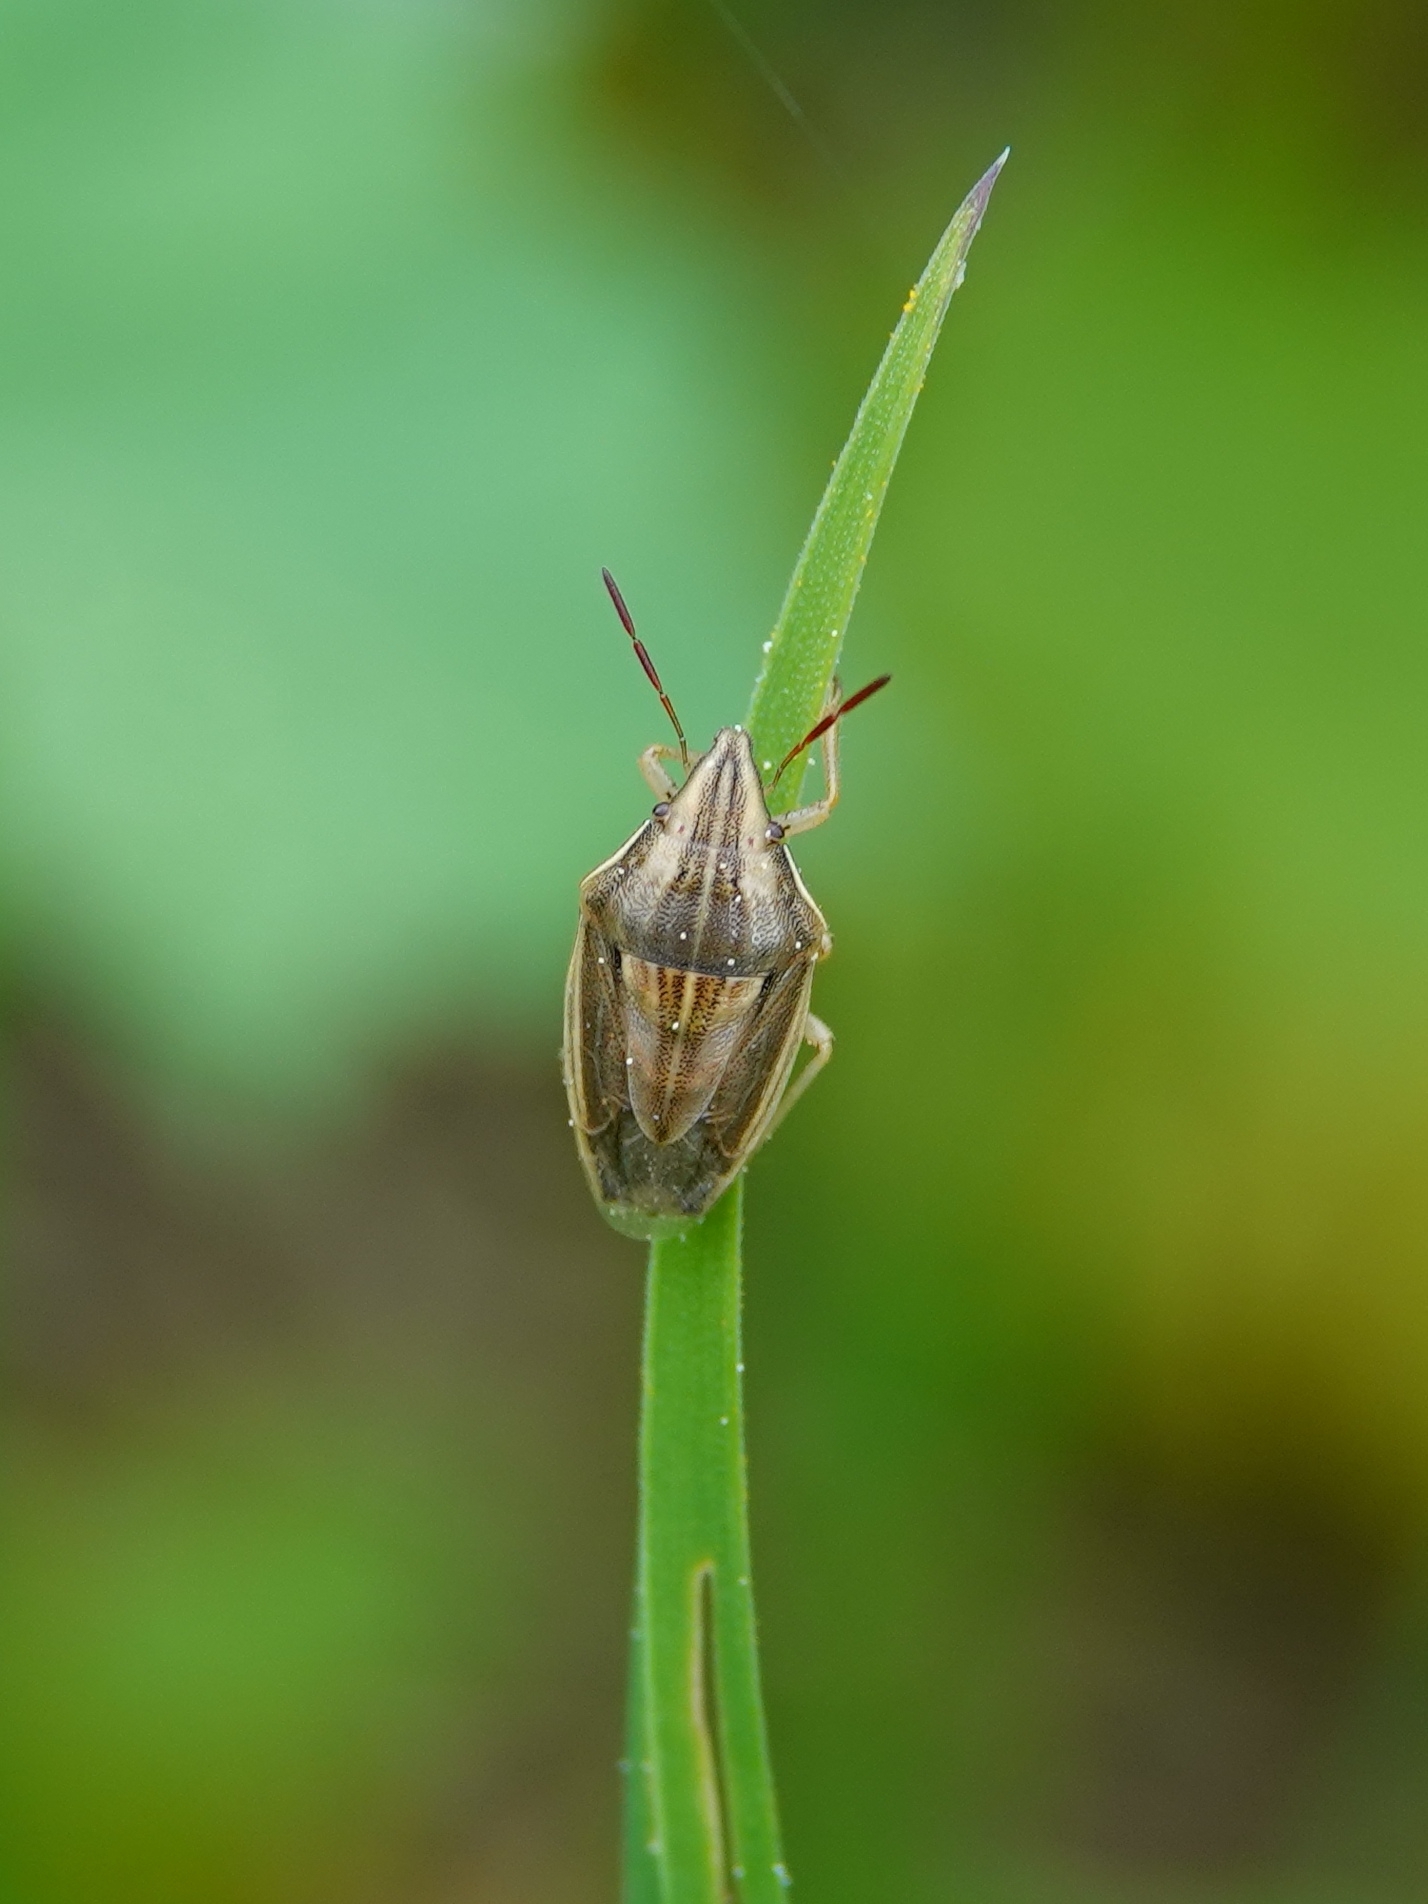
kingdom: Animalia
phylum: Arthropoda
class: Insecta
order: Hemiptera
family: Pentatomidae
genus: Aelia
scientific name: Aelia acuminata
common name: Bishop's mitre
